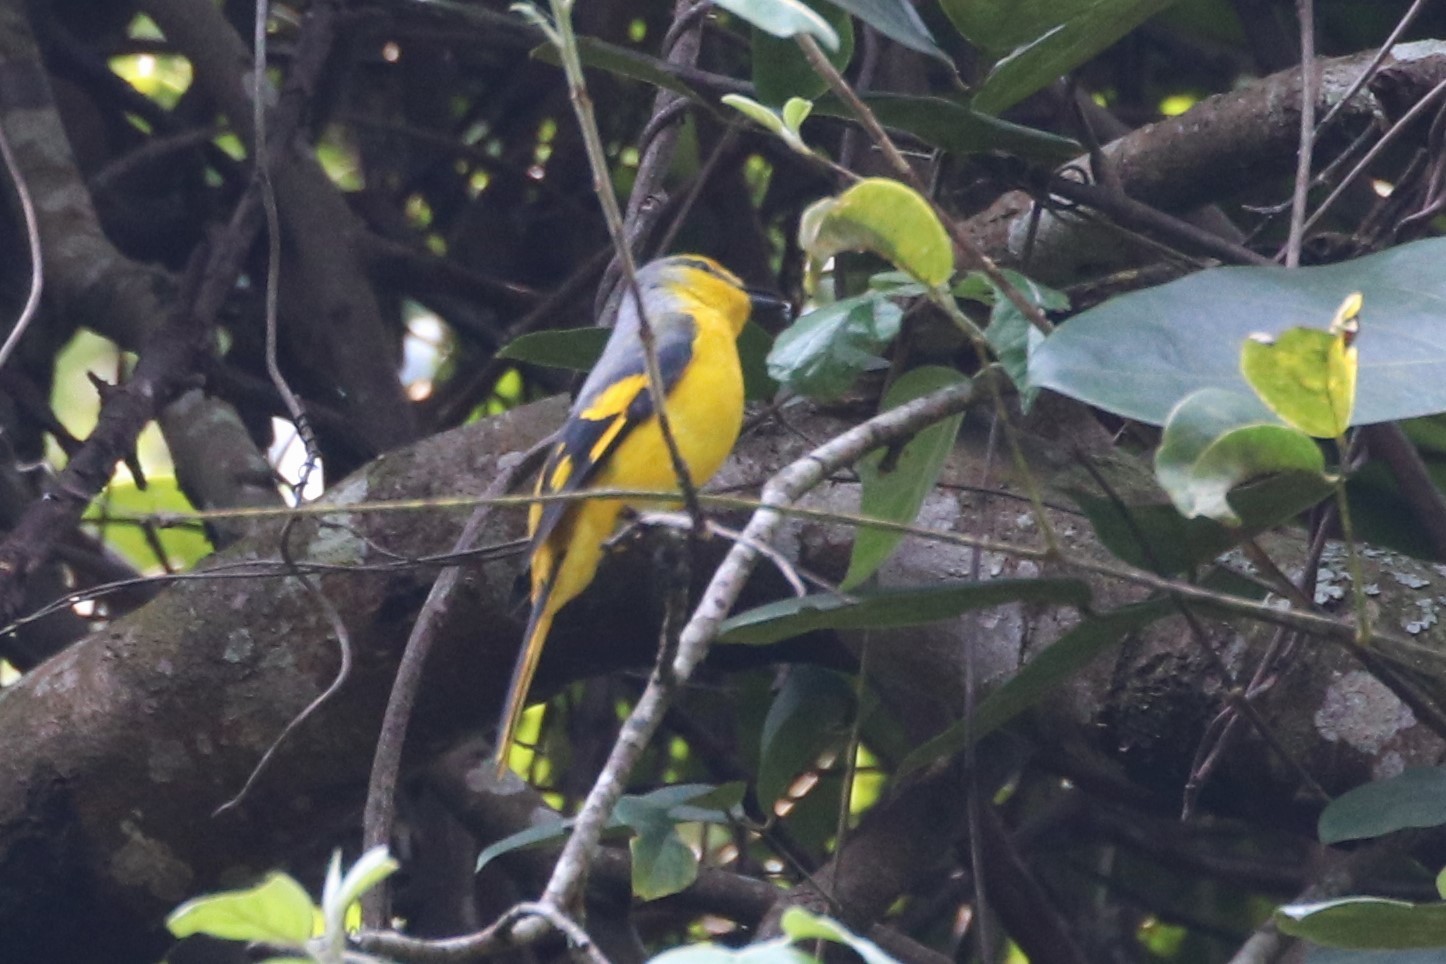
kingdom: Animalia
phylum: Chordata
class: Aves
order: Passeriformes
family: Campephagidae
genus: Pericrocotus
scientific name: Pericrocotus speciosus
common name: Scarlet minivet
